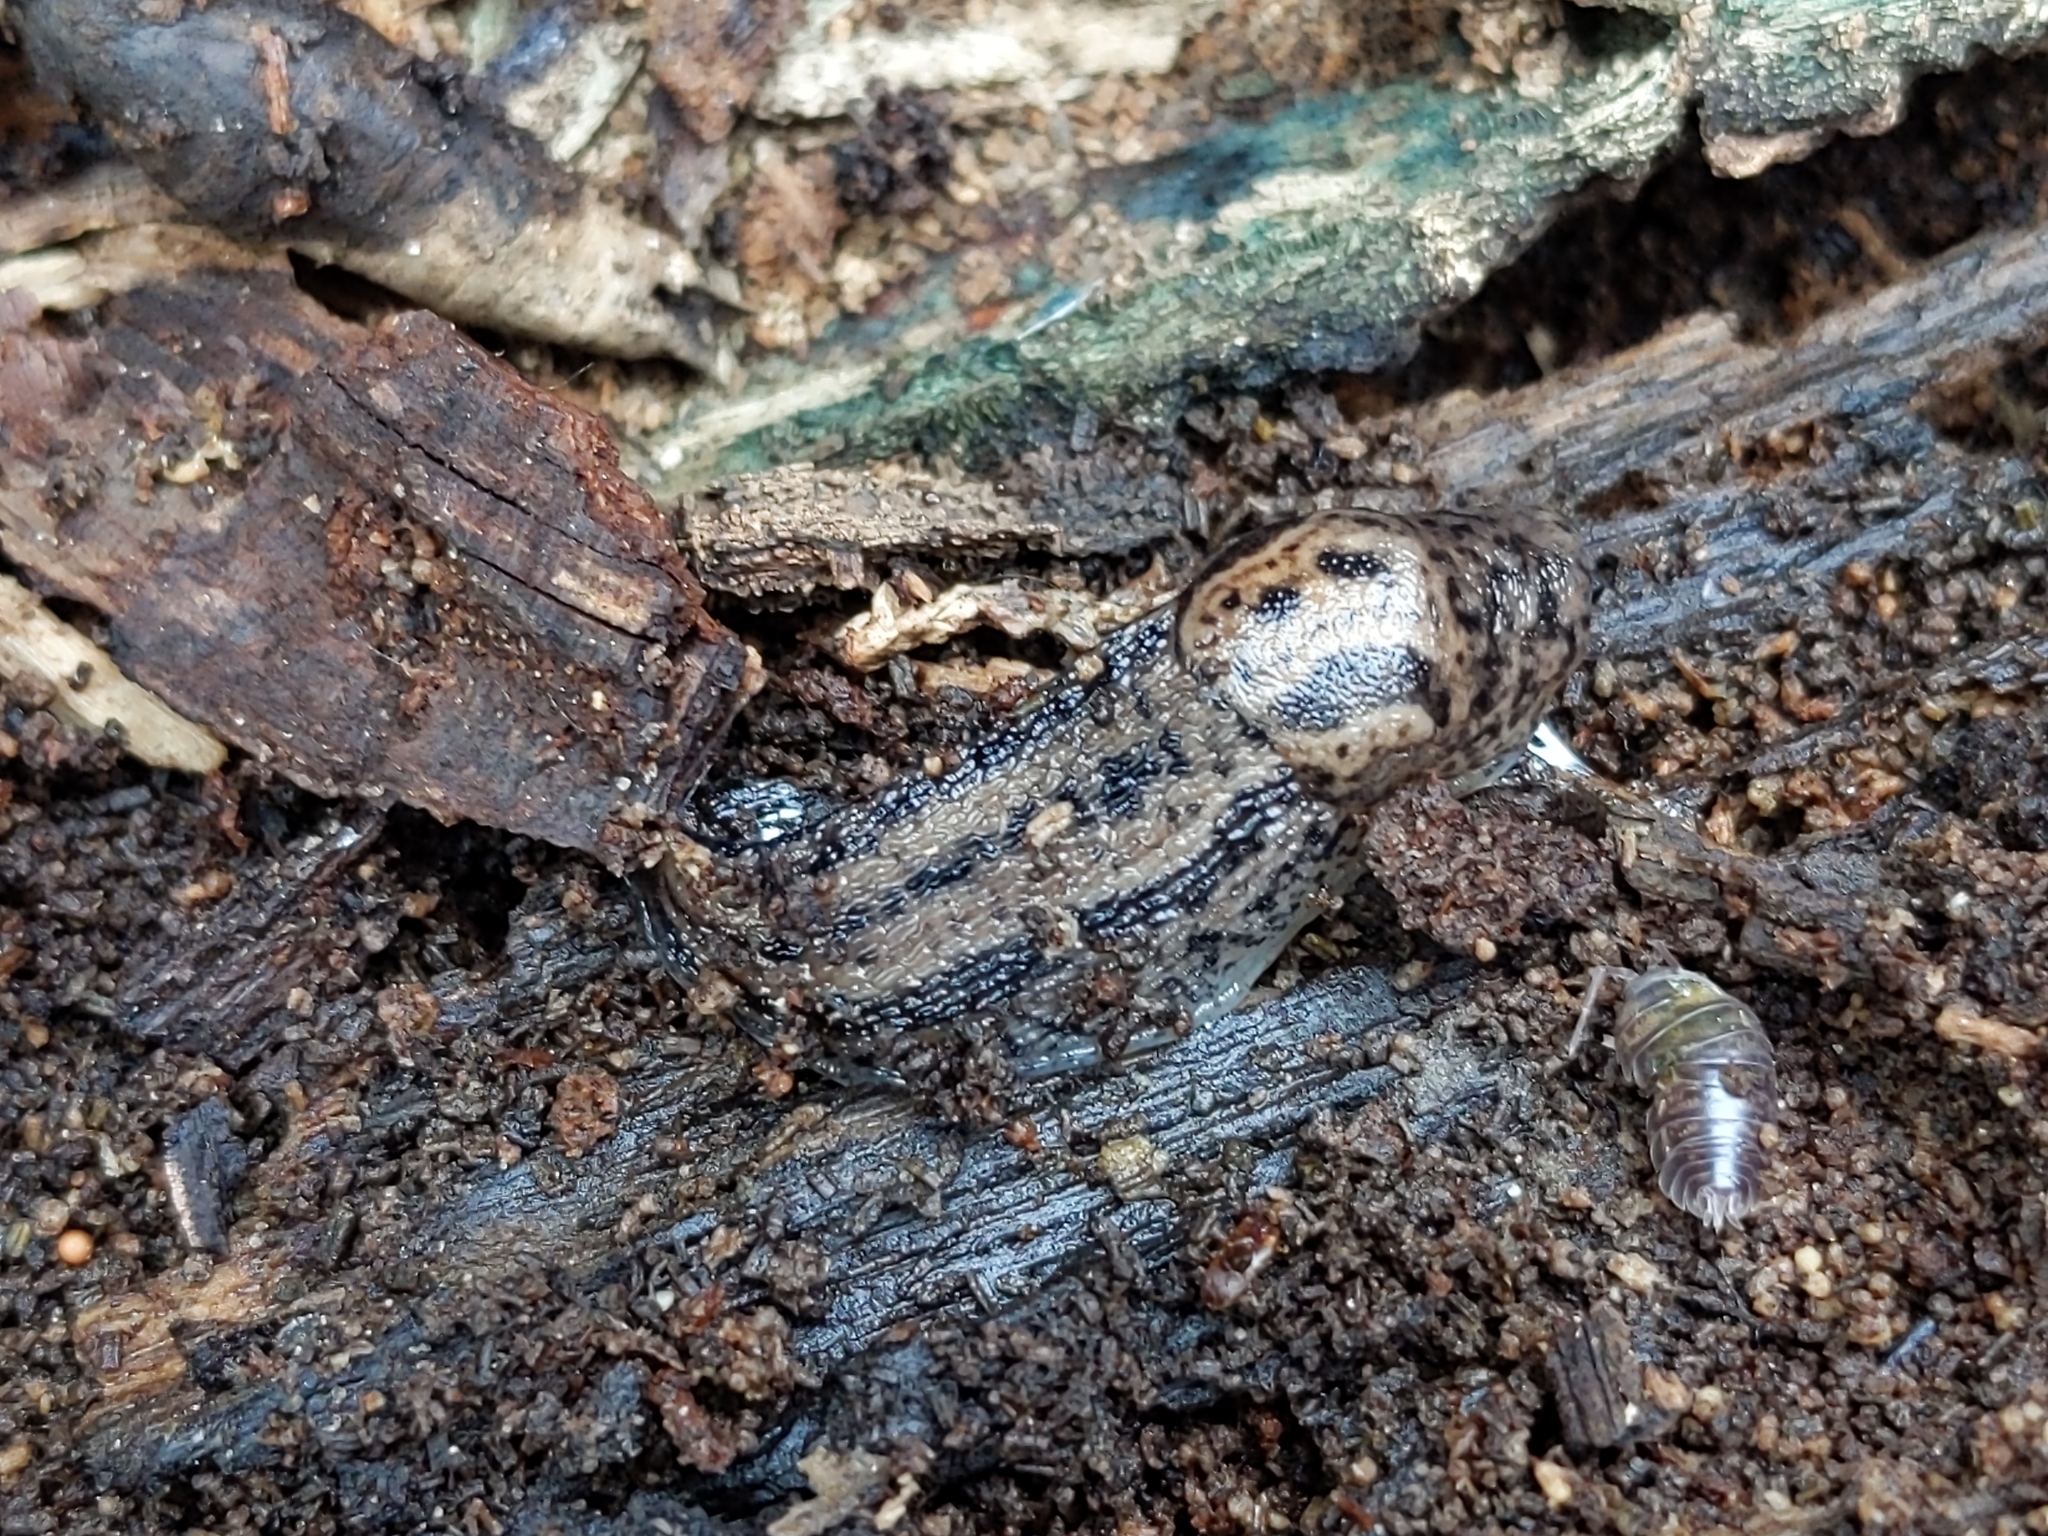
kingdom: Animalia
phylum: Mollusca
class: Gastropoda
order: Stylommatophora
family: Limacidae
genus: Limax
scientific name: Limax maximus
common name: Great grey slug
